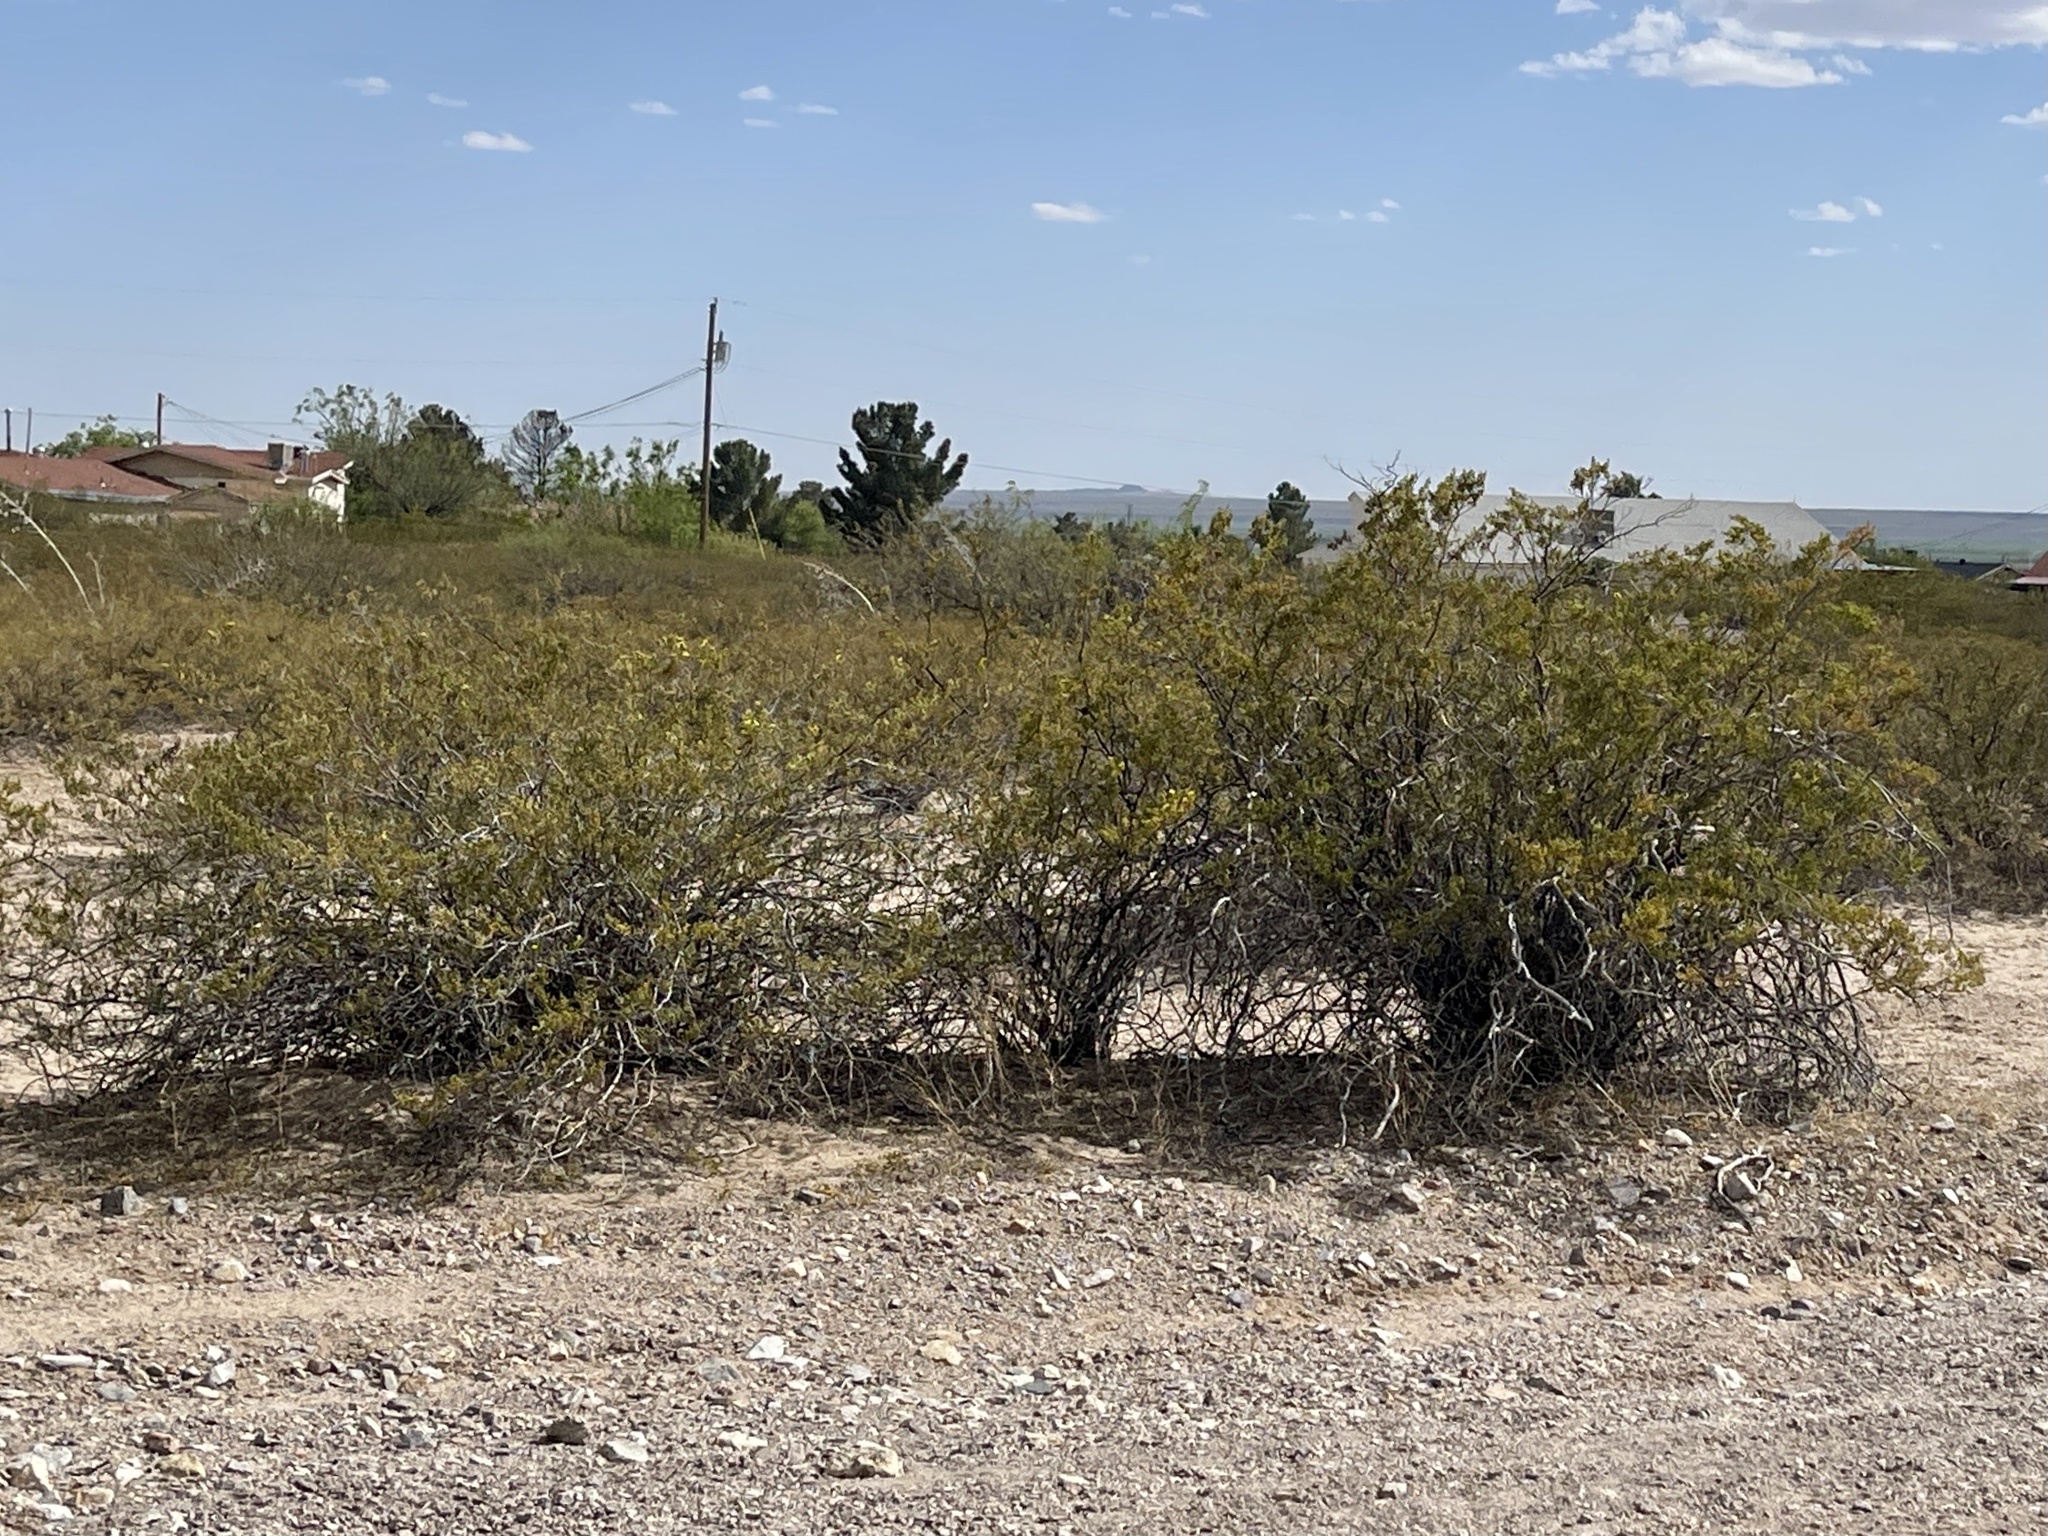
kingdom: Plantae
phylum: Tracheophyta
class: Magnoliopsida
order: Zygophyllales
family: Zygophyllaceae
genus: Larrea
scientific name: Larrea tridentata
